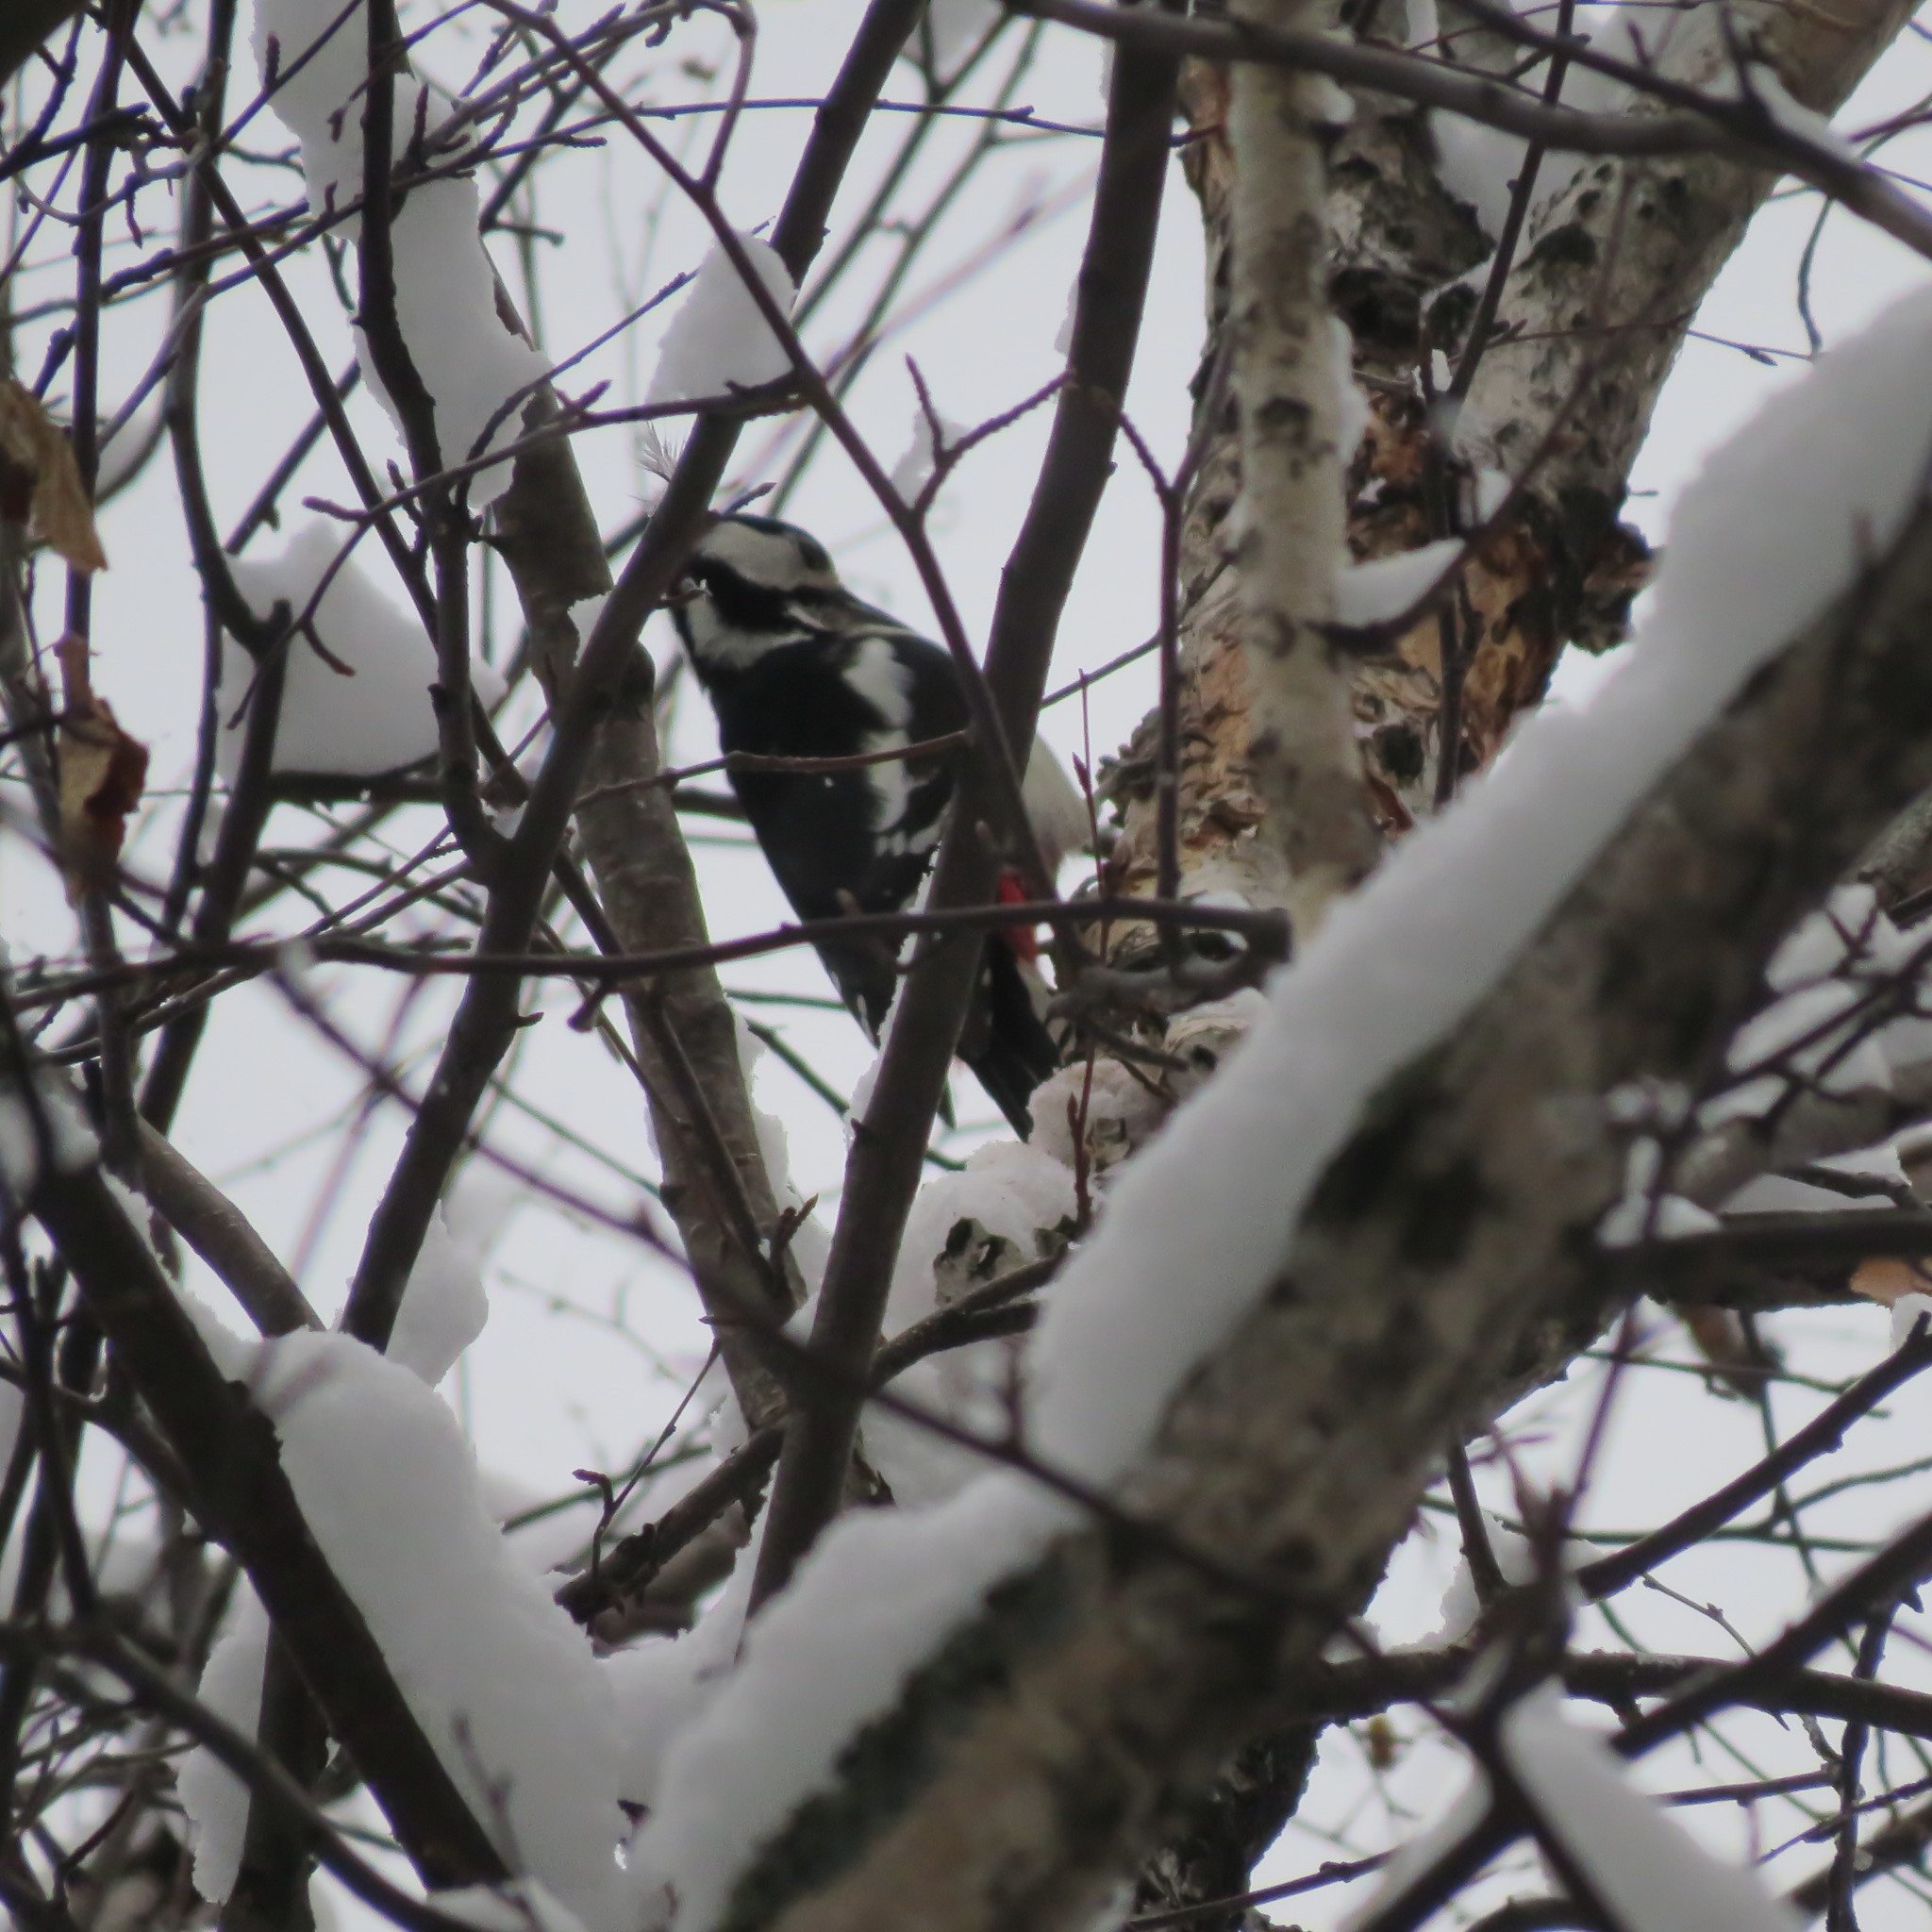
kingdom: Animalia
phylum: Chordata
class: Aves
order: Piciformes
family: Picidae
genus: Dendrocopos
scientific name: Dendrocopos major
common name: Great spotted woodpecker
